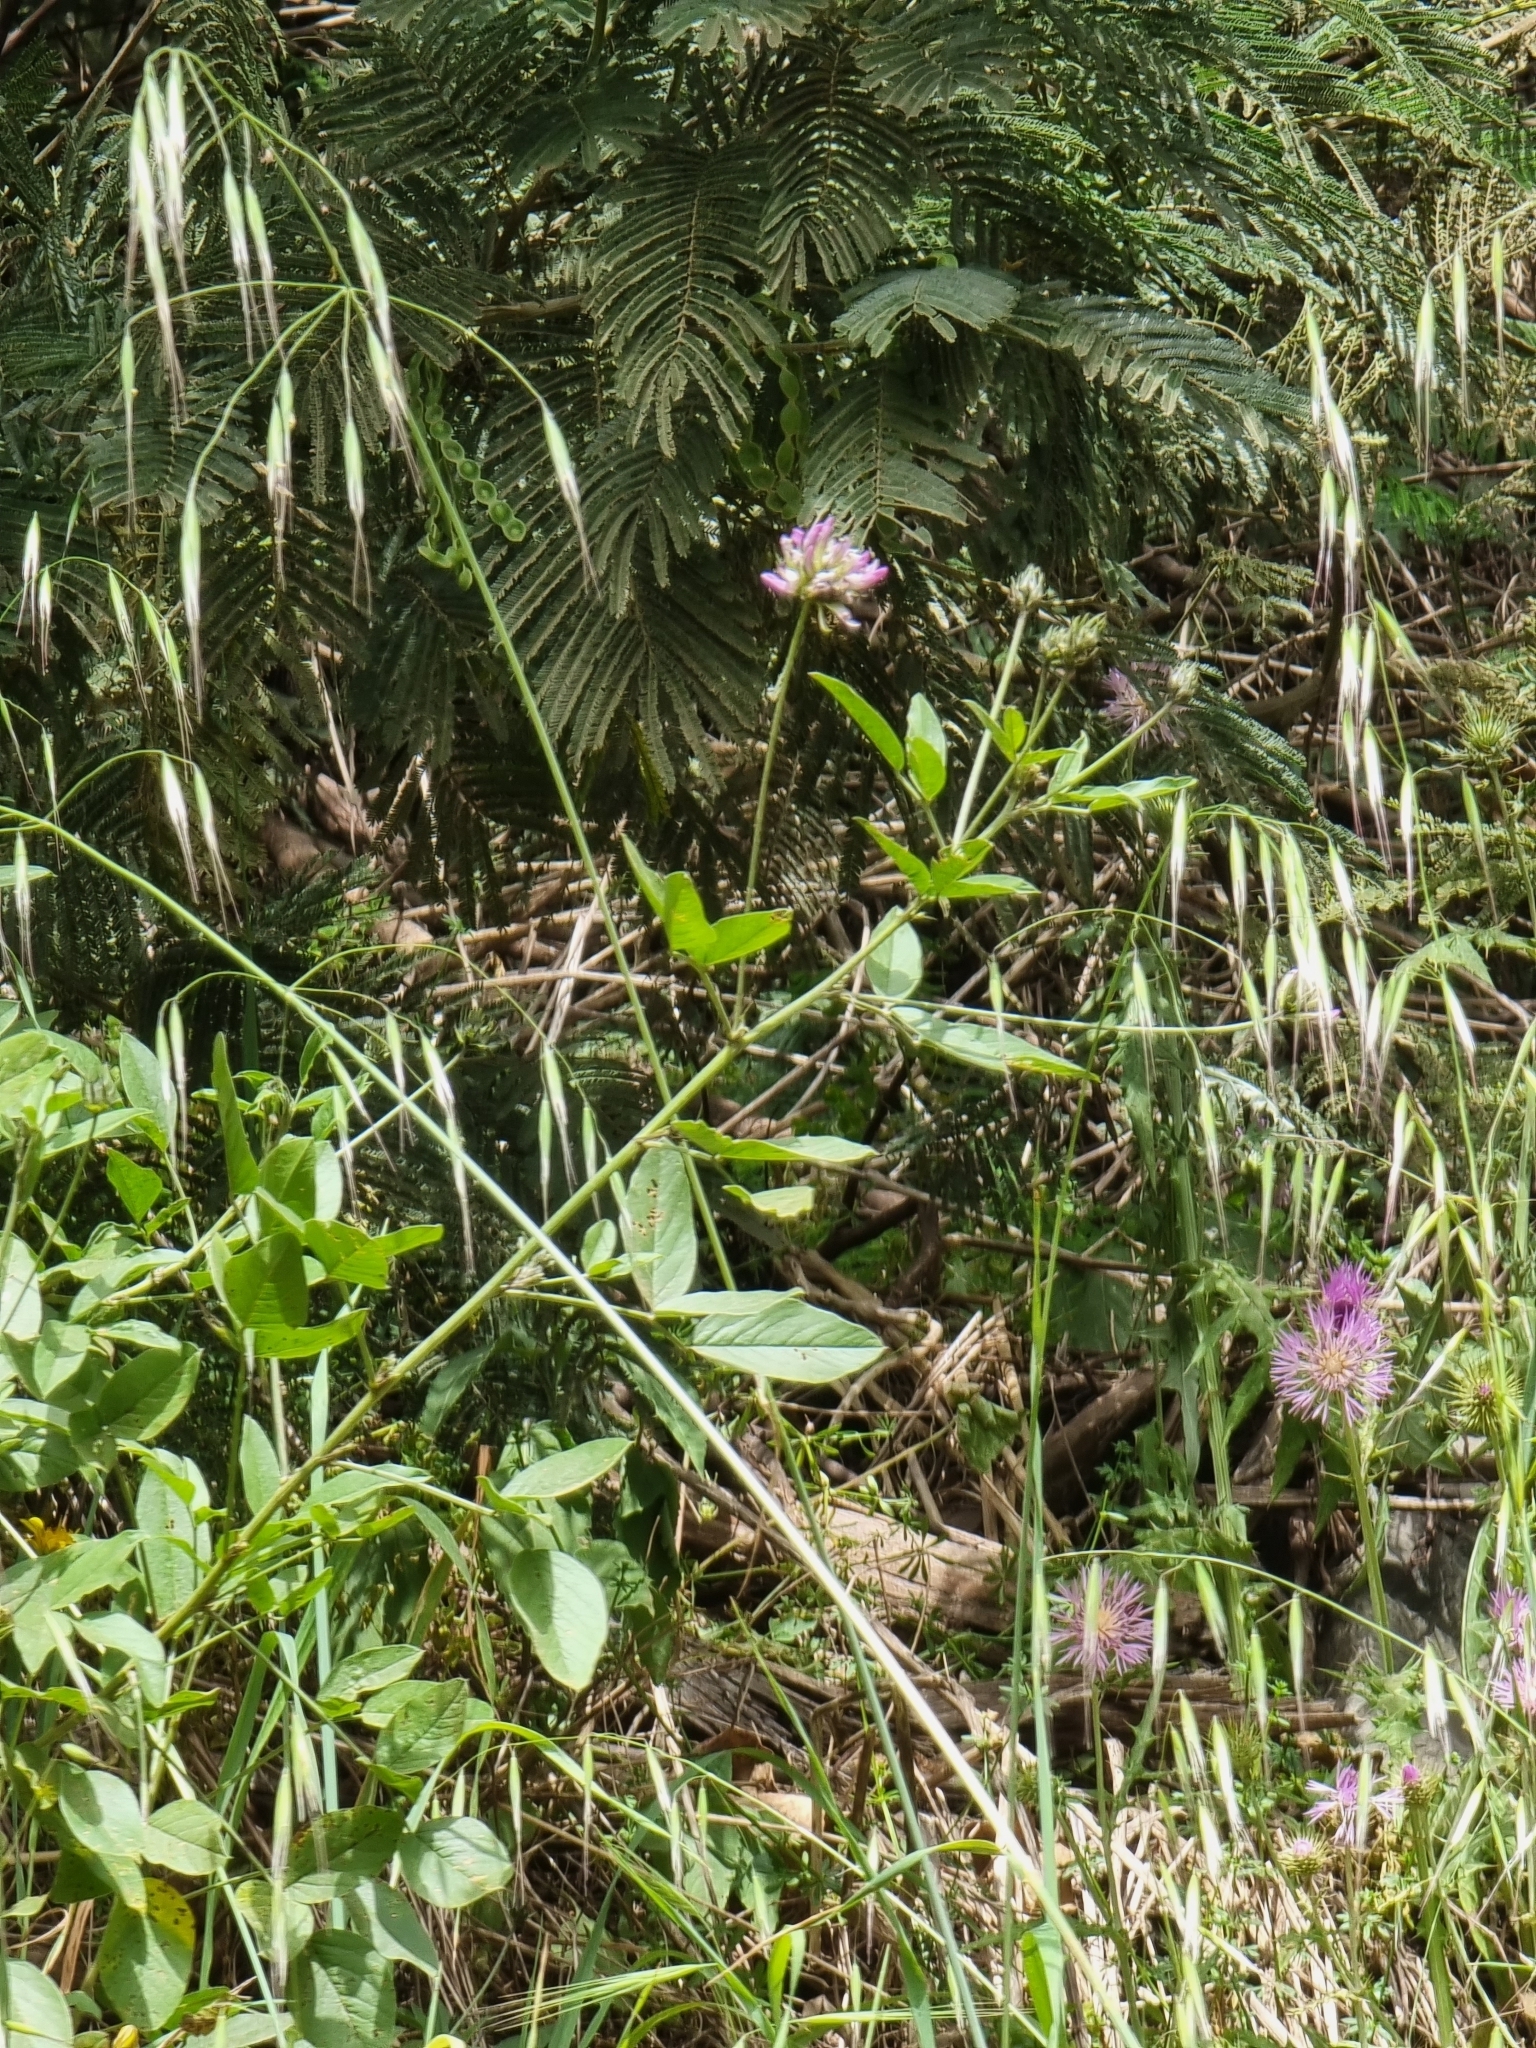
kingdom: Plantae
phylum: Tracheophyta
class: Magnoliopsida
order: Fabales
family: Fabaceae
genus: Bituminaria
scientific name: Bituminaria bituminosa
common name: Arabian pea
